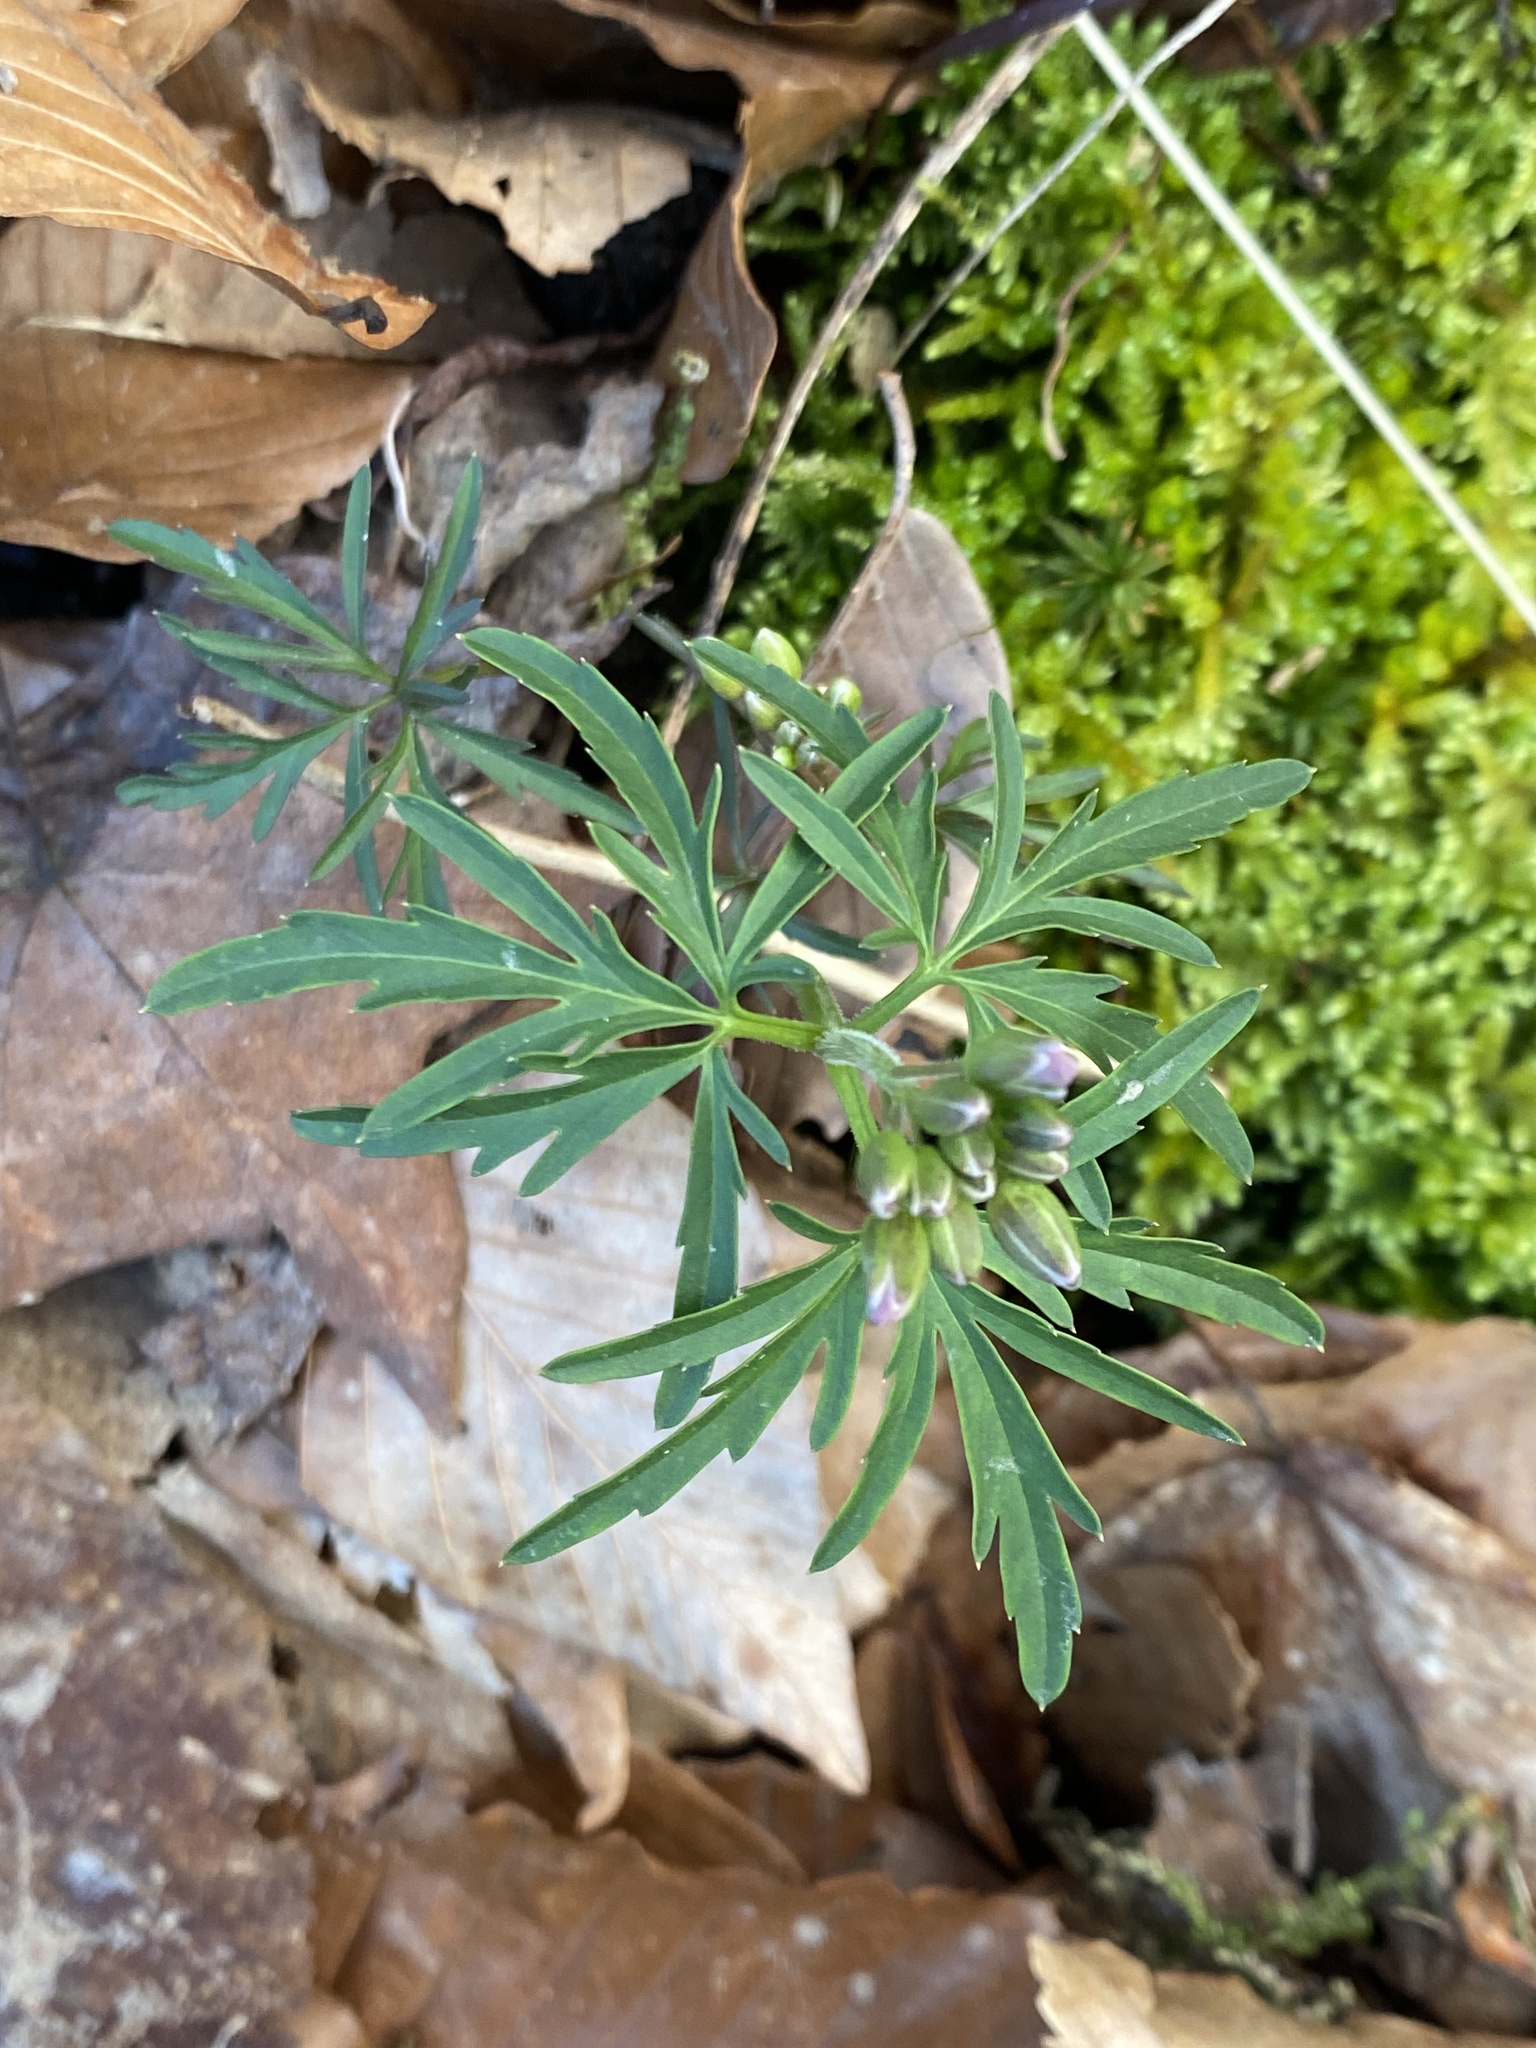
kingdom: Plantae
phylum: Tracheophyta
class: Magnoliopsida
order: Brassicales
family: Brassicaceae
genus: Cardamine
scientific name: Cardamine concatenata
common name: Cut-leaf toothcup
